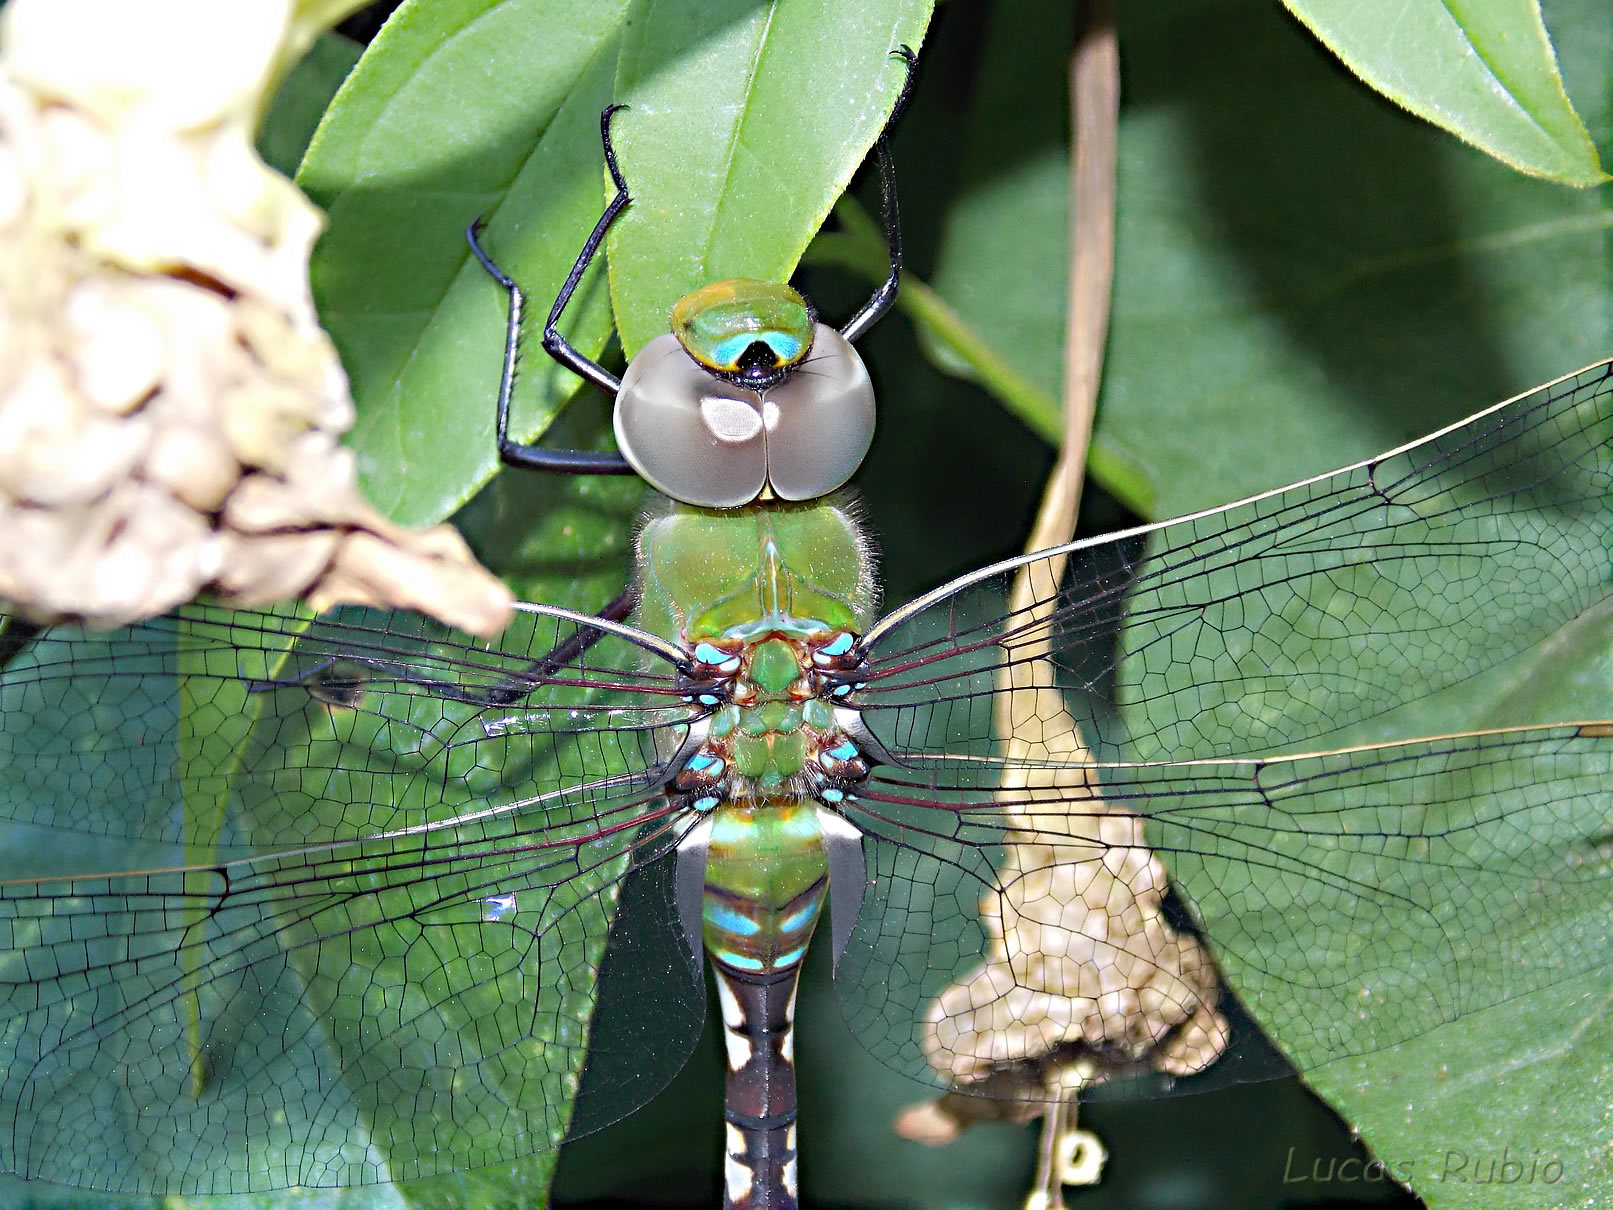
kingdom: Animalia
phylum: Arthropoda
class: Insecta
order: Odonata
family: Aeshnidae
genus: Anax
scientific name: Anax amazili
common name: Amazon darner
